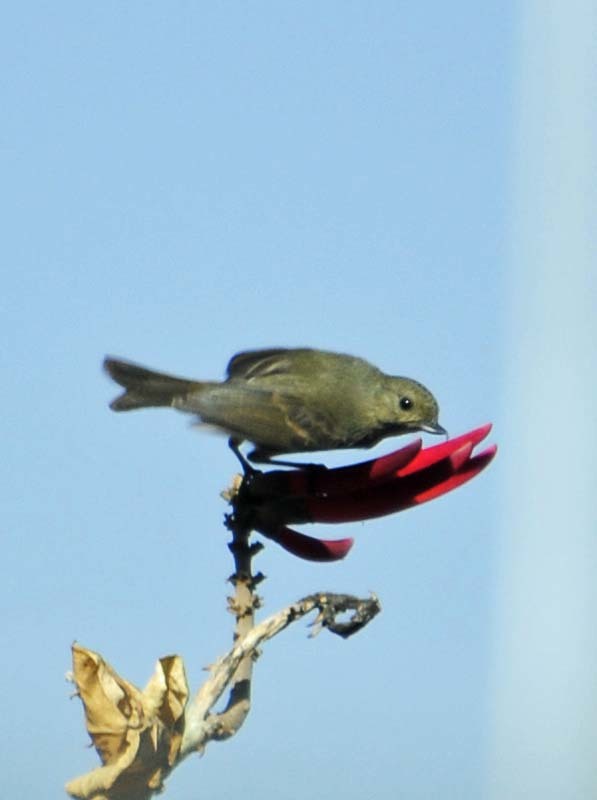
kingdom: Animalia
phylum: Chordata
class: Aves
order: Passeriformes
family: Thraupidae
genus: Diglossa
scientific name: Diglossa baritula
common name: Cinnamon-bellied flowerpiercer
